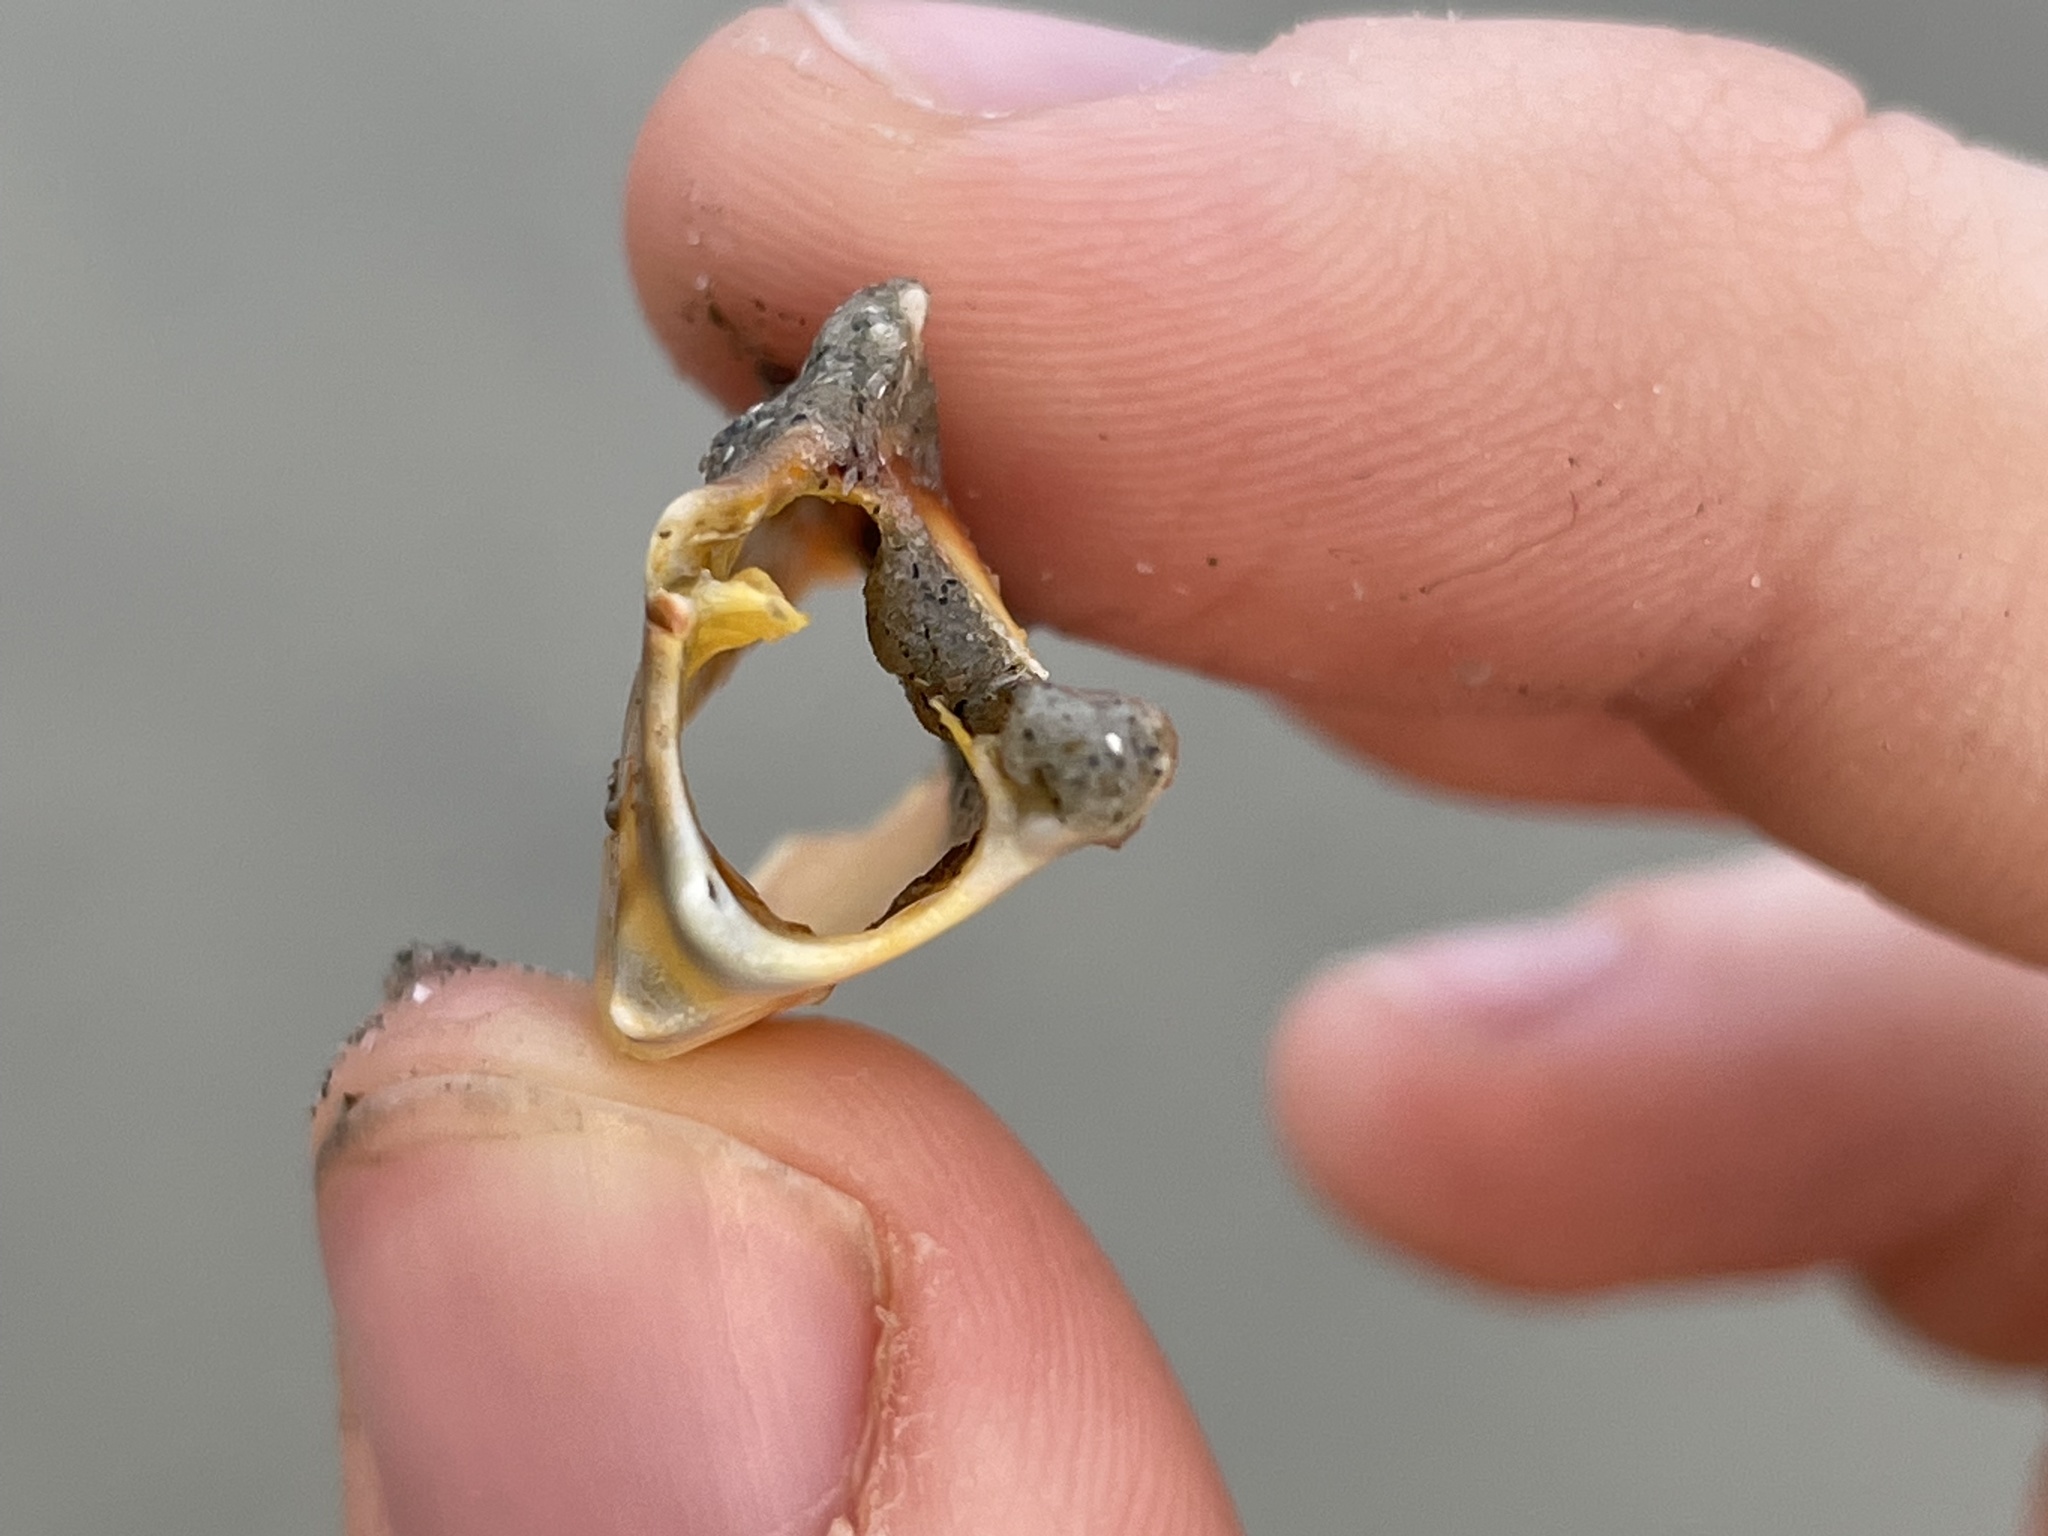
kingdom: Animalia
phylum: Arthropoda
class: Malacostraca
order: Decapoda
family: Portunidae
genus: Arenaeus
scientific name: Arenaeus cribrarius
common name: Speckled crab
